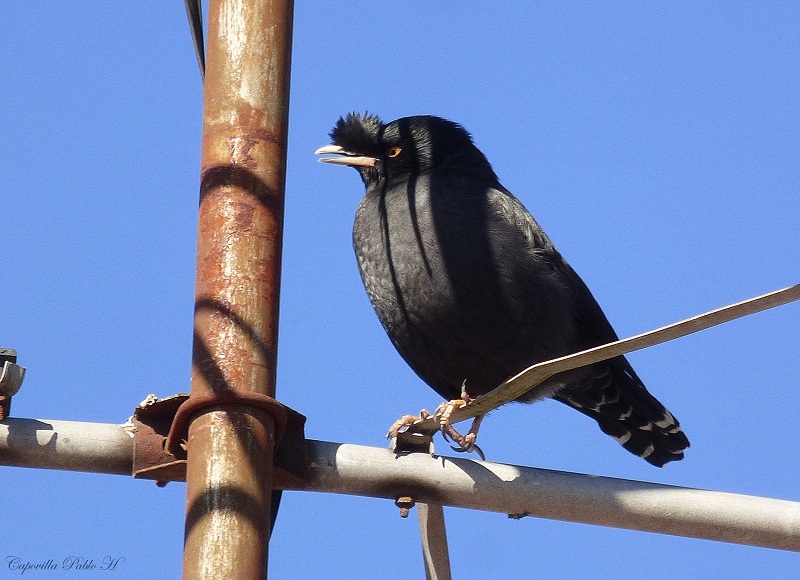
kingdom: Animalia
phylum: Chordata
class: Aves
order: Passeriformes
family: Sturnidae
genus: Acridotheres
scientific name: Acridotheres cristatellus
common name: Crested myna
